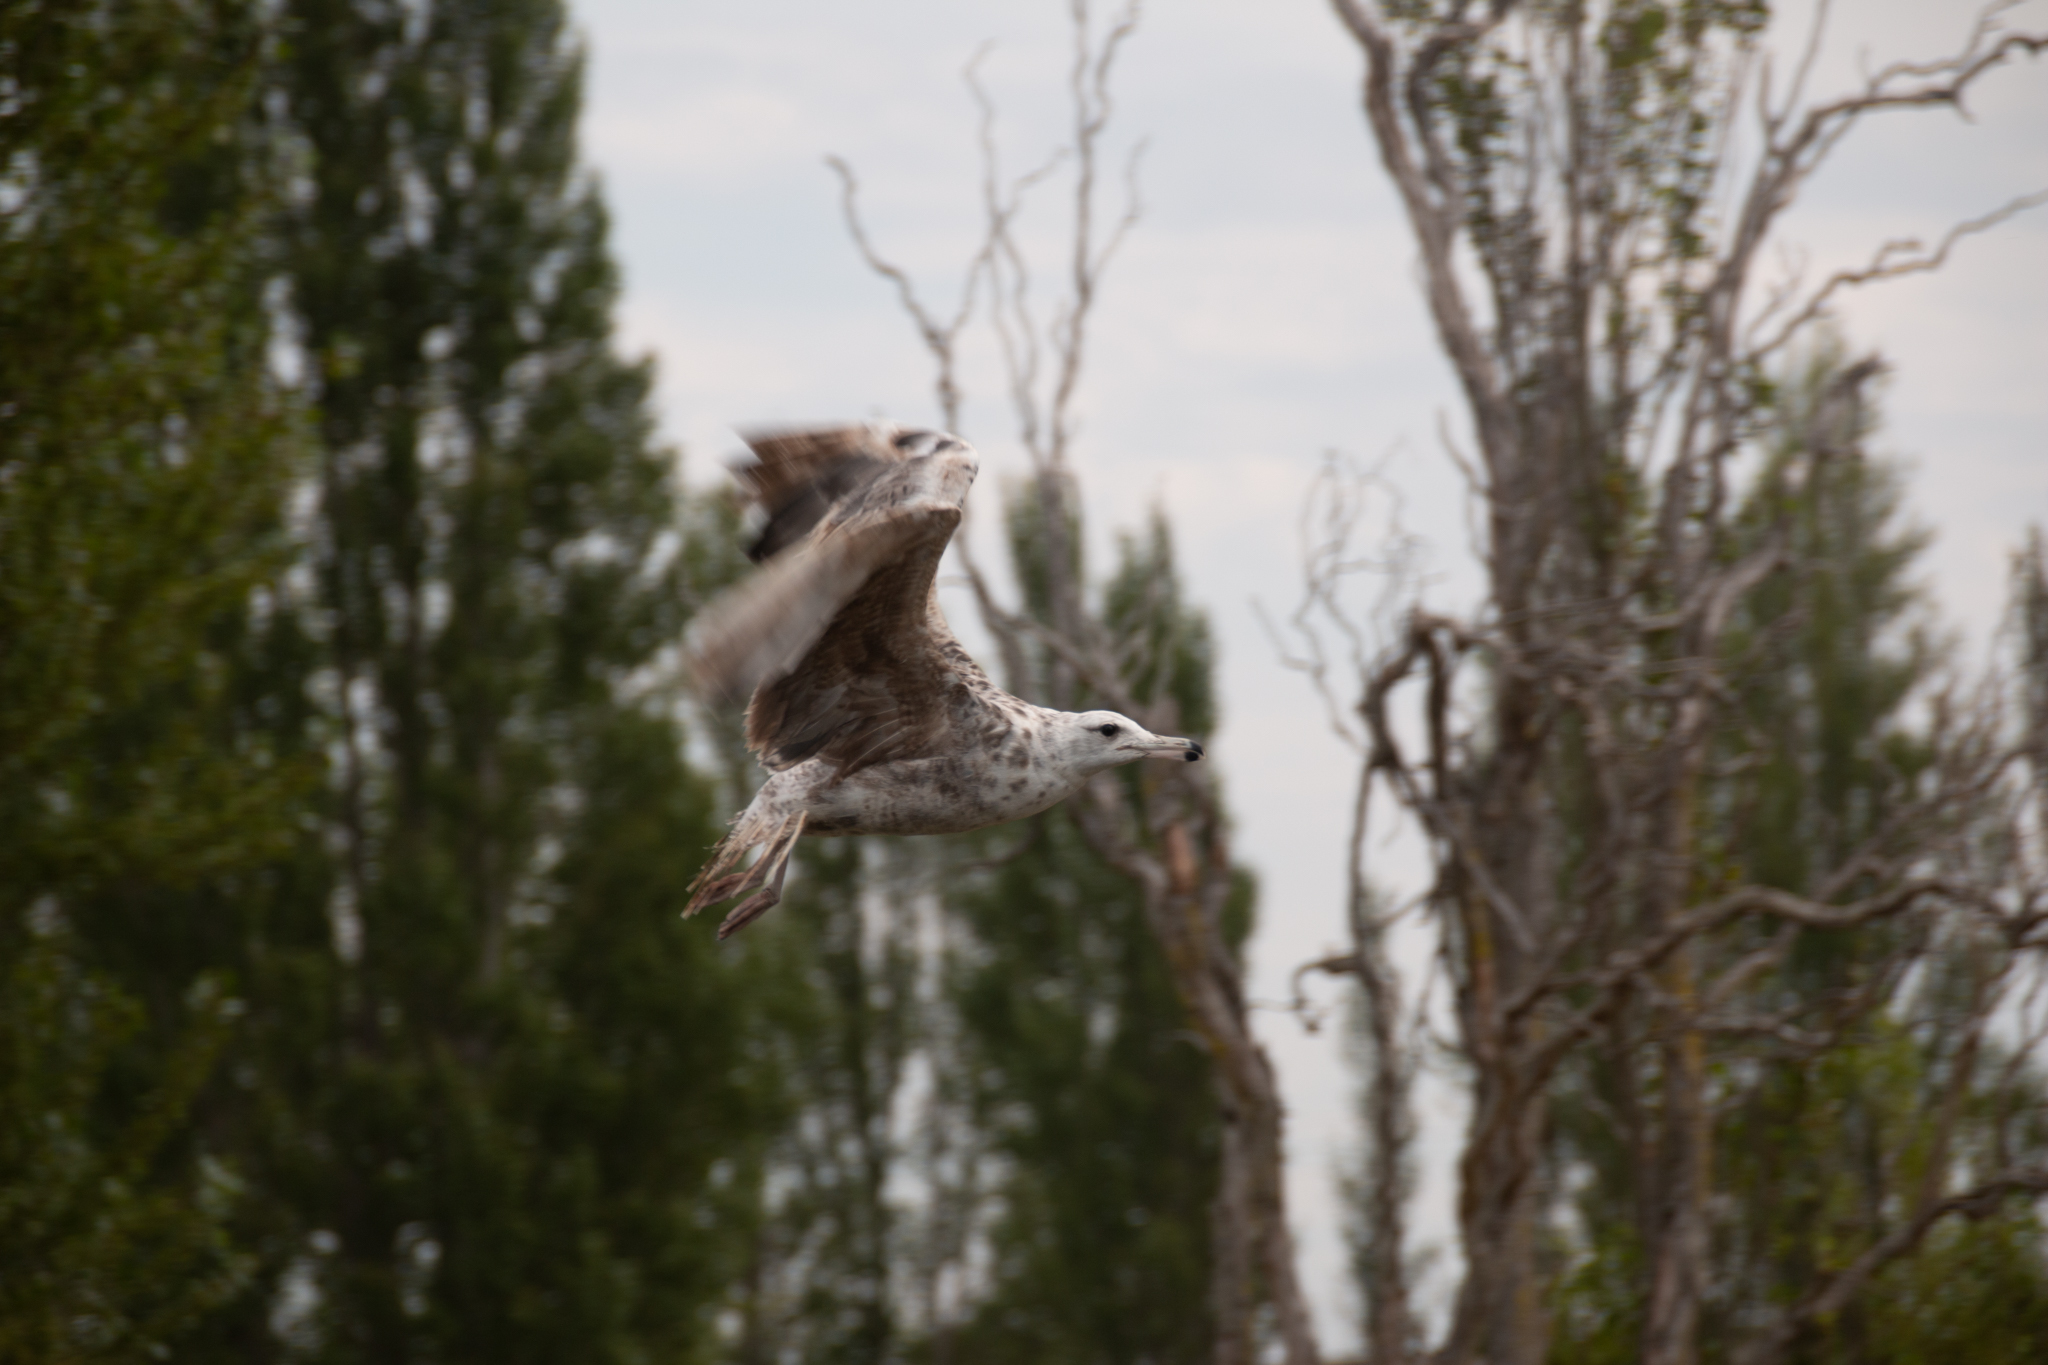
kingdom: Animalia
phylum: Chordata
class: Aves
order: Charadriiformes
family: Laridae
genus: Larus
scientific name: Larus californicus
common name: California gull
